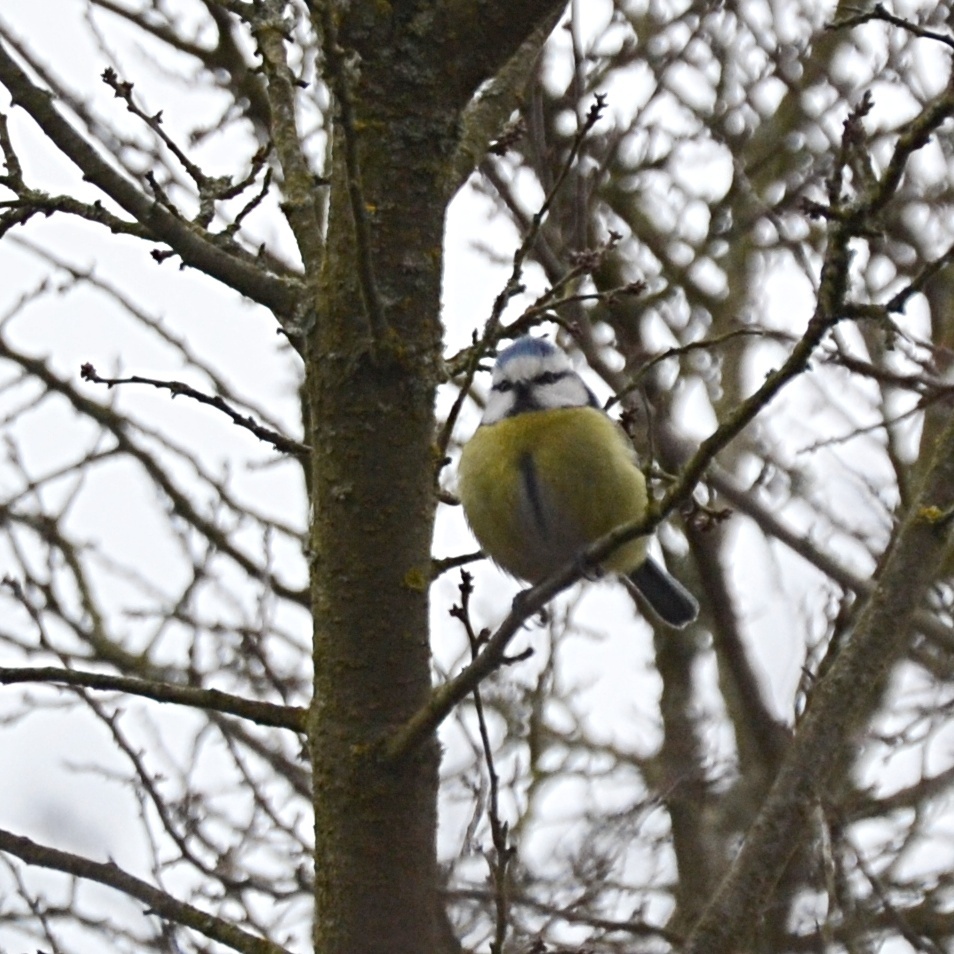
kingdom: Animalia
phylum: Chordata
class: Aves
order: Passeriformes
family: Paridae
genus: Cyanistes
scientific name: Cyanistes caeruleus
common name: Eurasian blue tit
